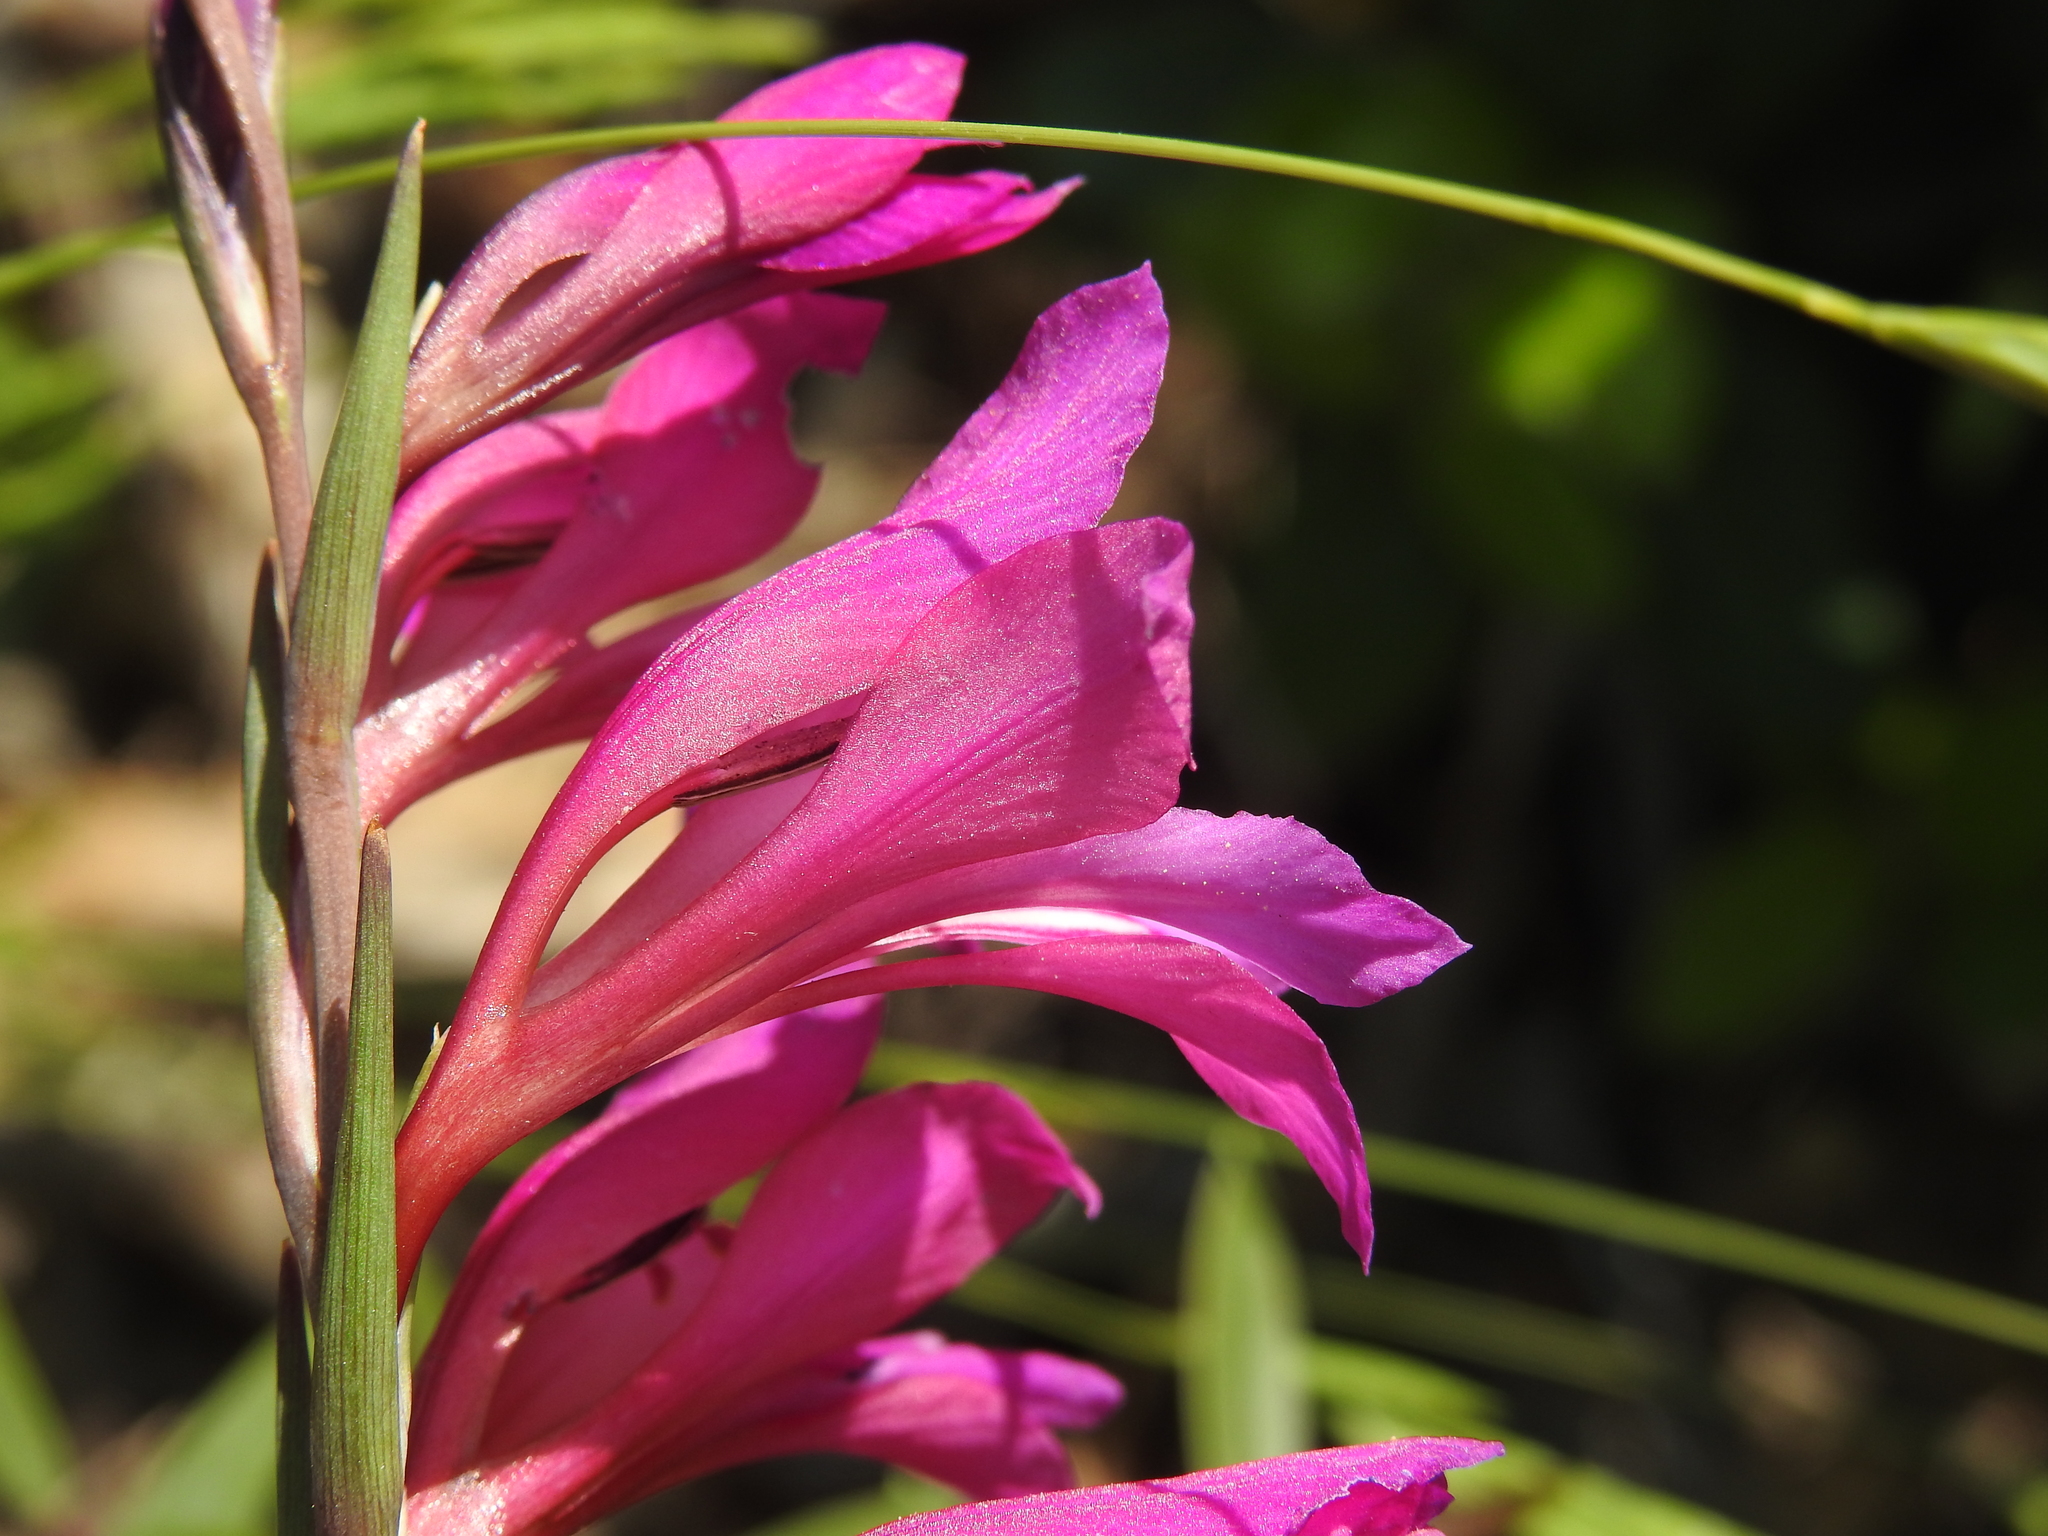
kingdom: Plantae
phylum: Tracheophyta
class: Liliopsida
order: Asparagales
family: Iridaceae
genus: Gladiolus
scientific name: Gladiolus dubius
